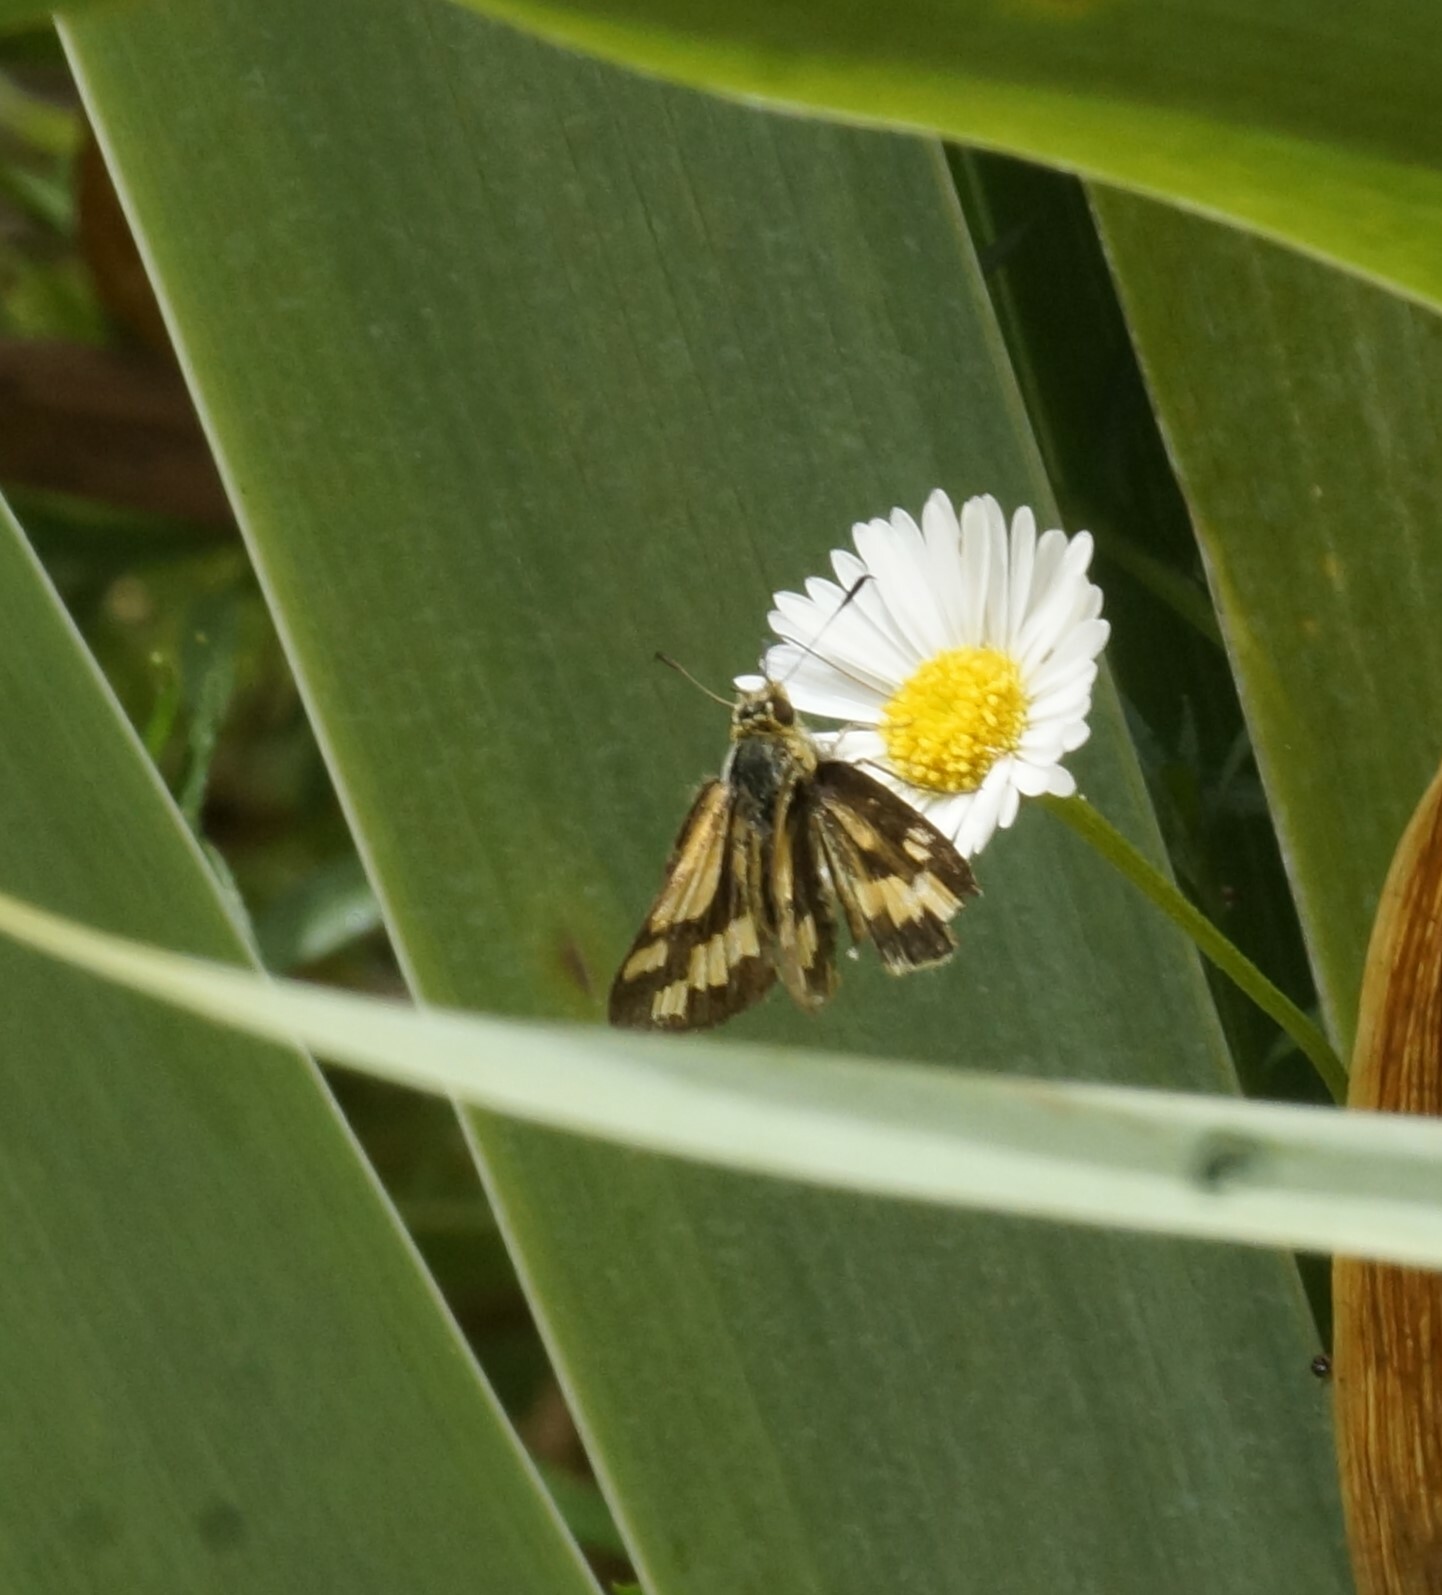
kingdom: Animalia
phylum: Arthropoda
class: Insecta
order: Lepidoptera
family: Hesperiidae
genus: Ocybadistes
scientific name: Ocybadistes walkeri
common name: Yellow-banded dart
